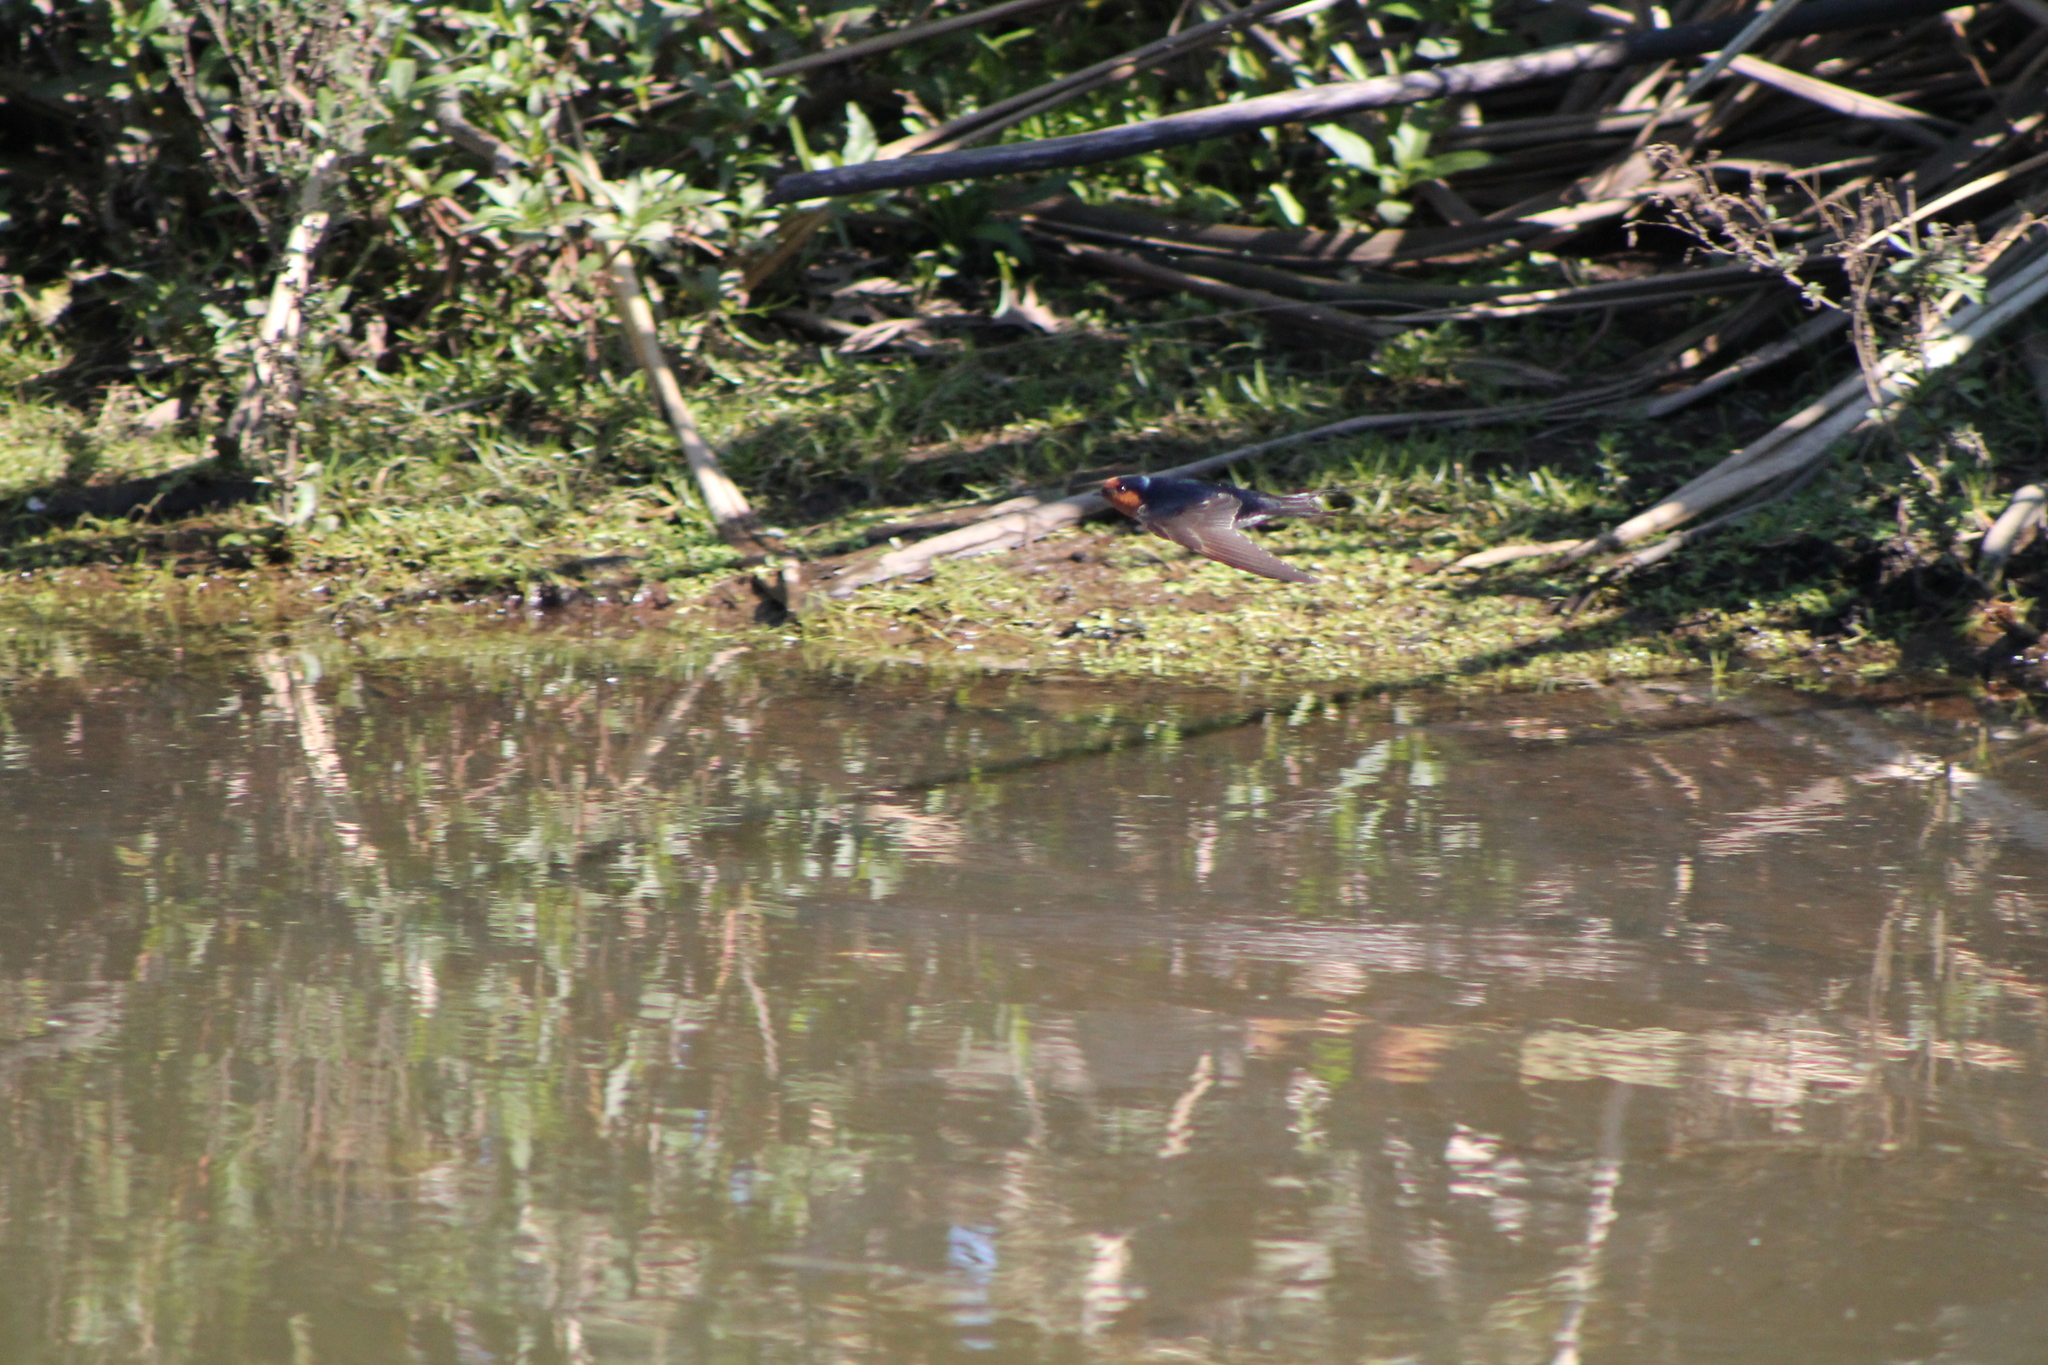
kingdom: Animalia
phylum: Chordata
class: Aves
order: Passeriformes
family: Hirundinidae
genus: Hirundo
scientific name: Hirundo neoxena
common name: Welcome swallow
